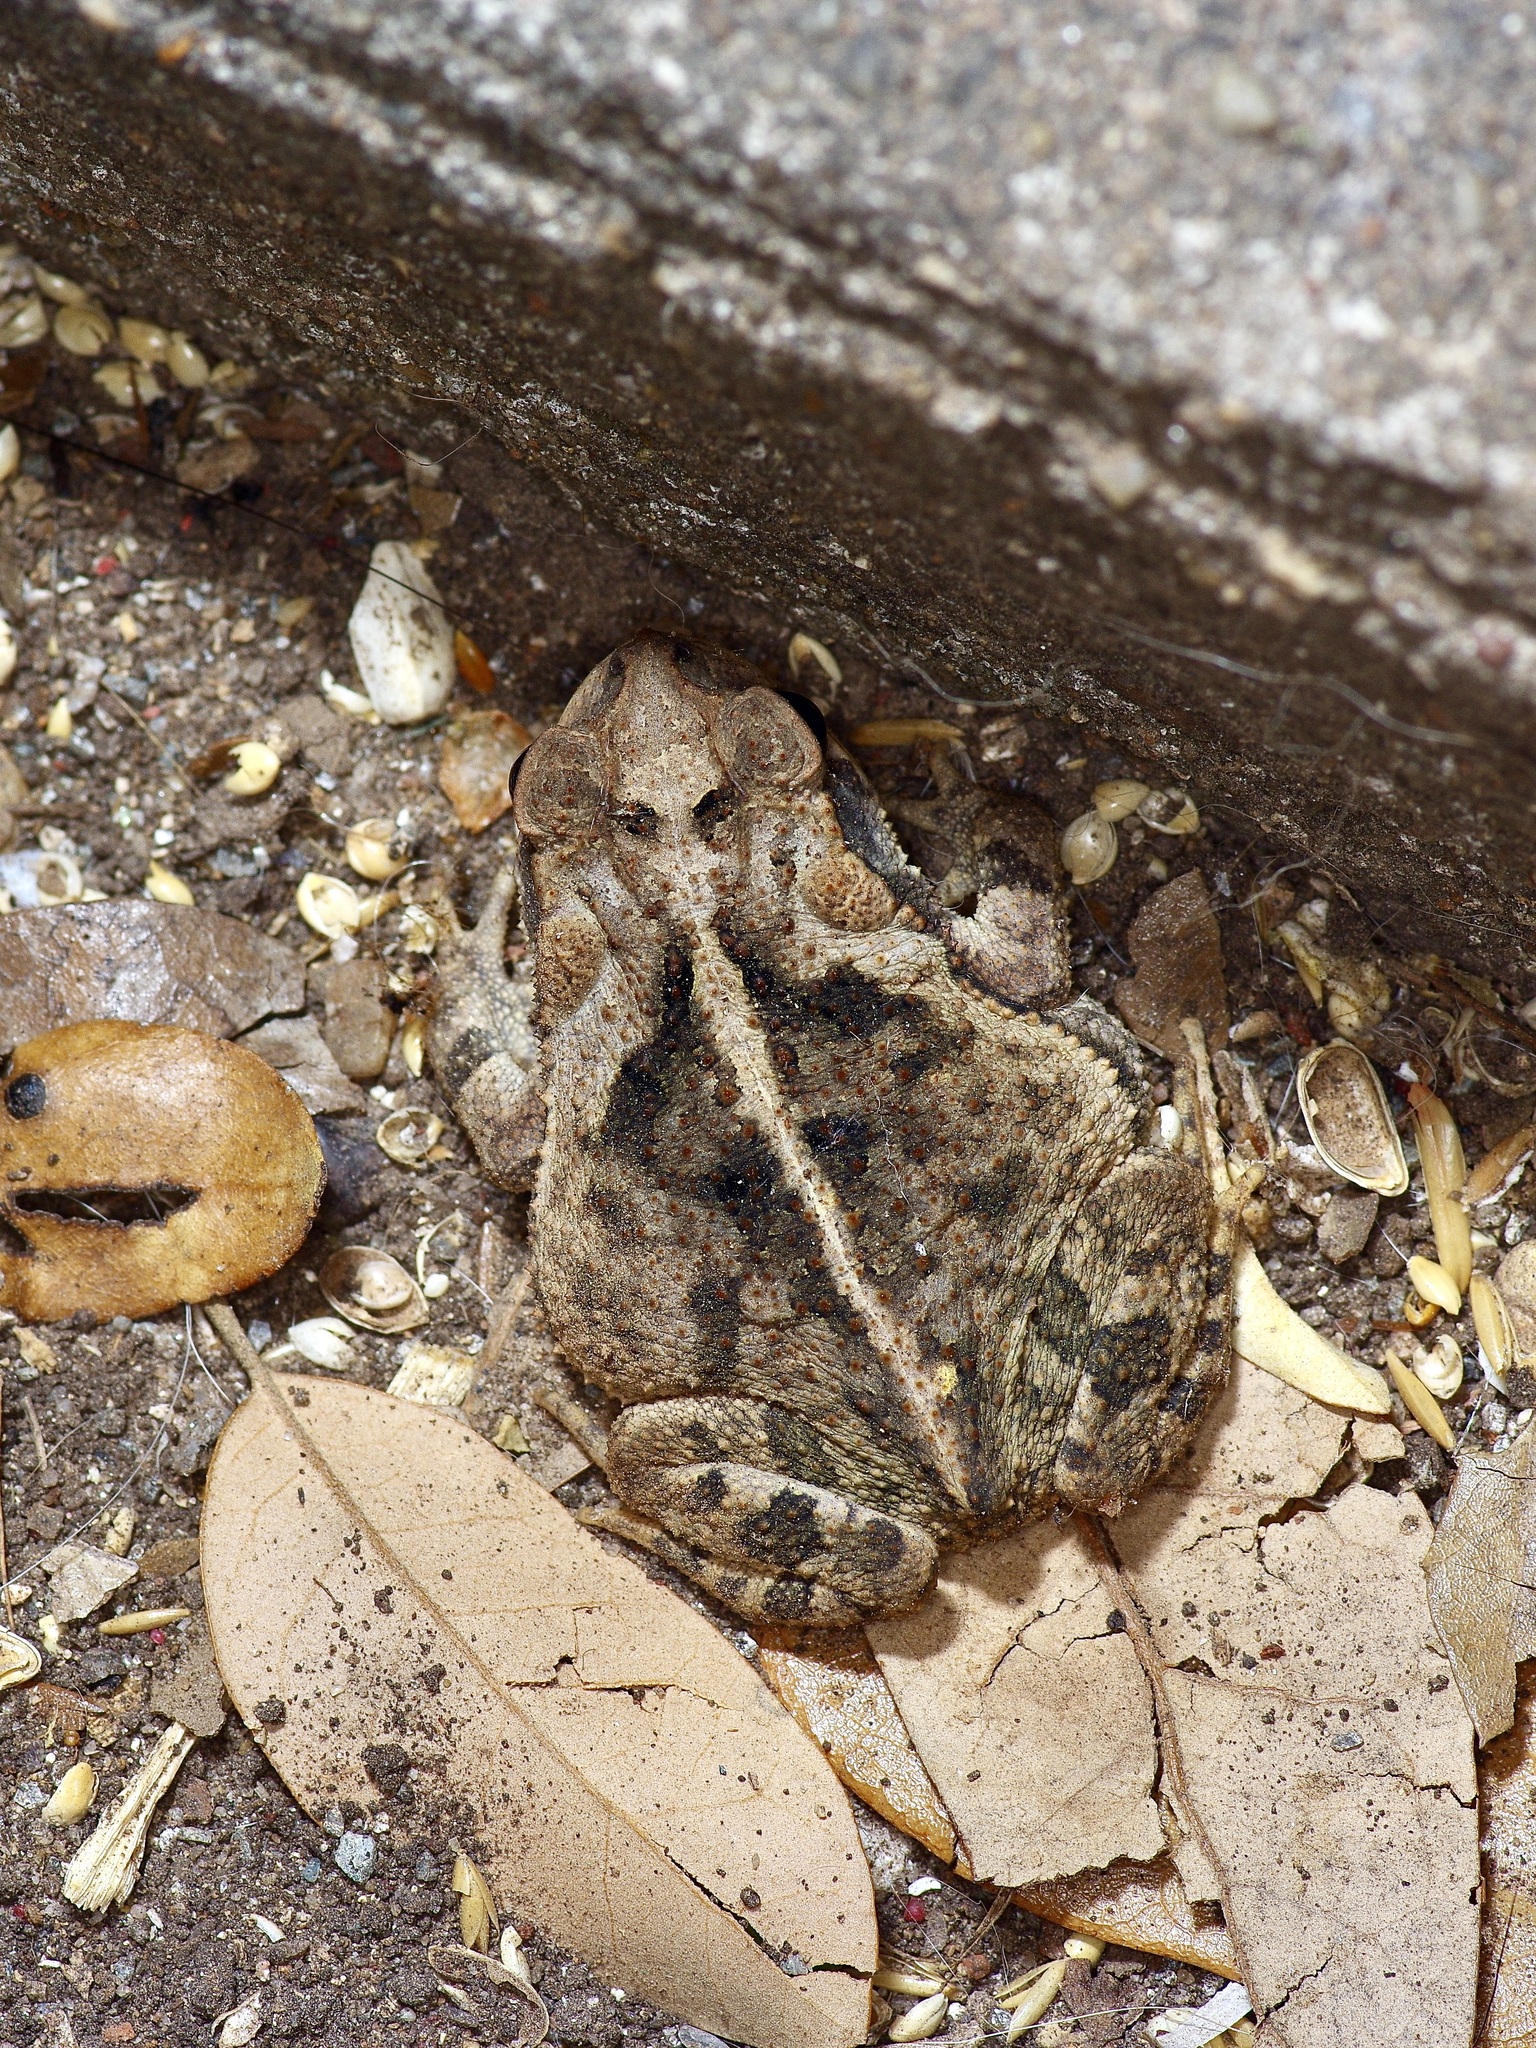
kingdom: Animalia
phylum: Chordata
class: Amphibia
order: Anura
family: Bufonidae
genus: Incilius
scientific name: Incilius nebulifer
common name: Gulf coast toad
